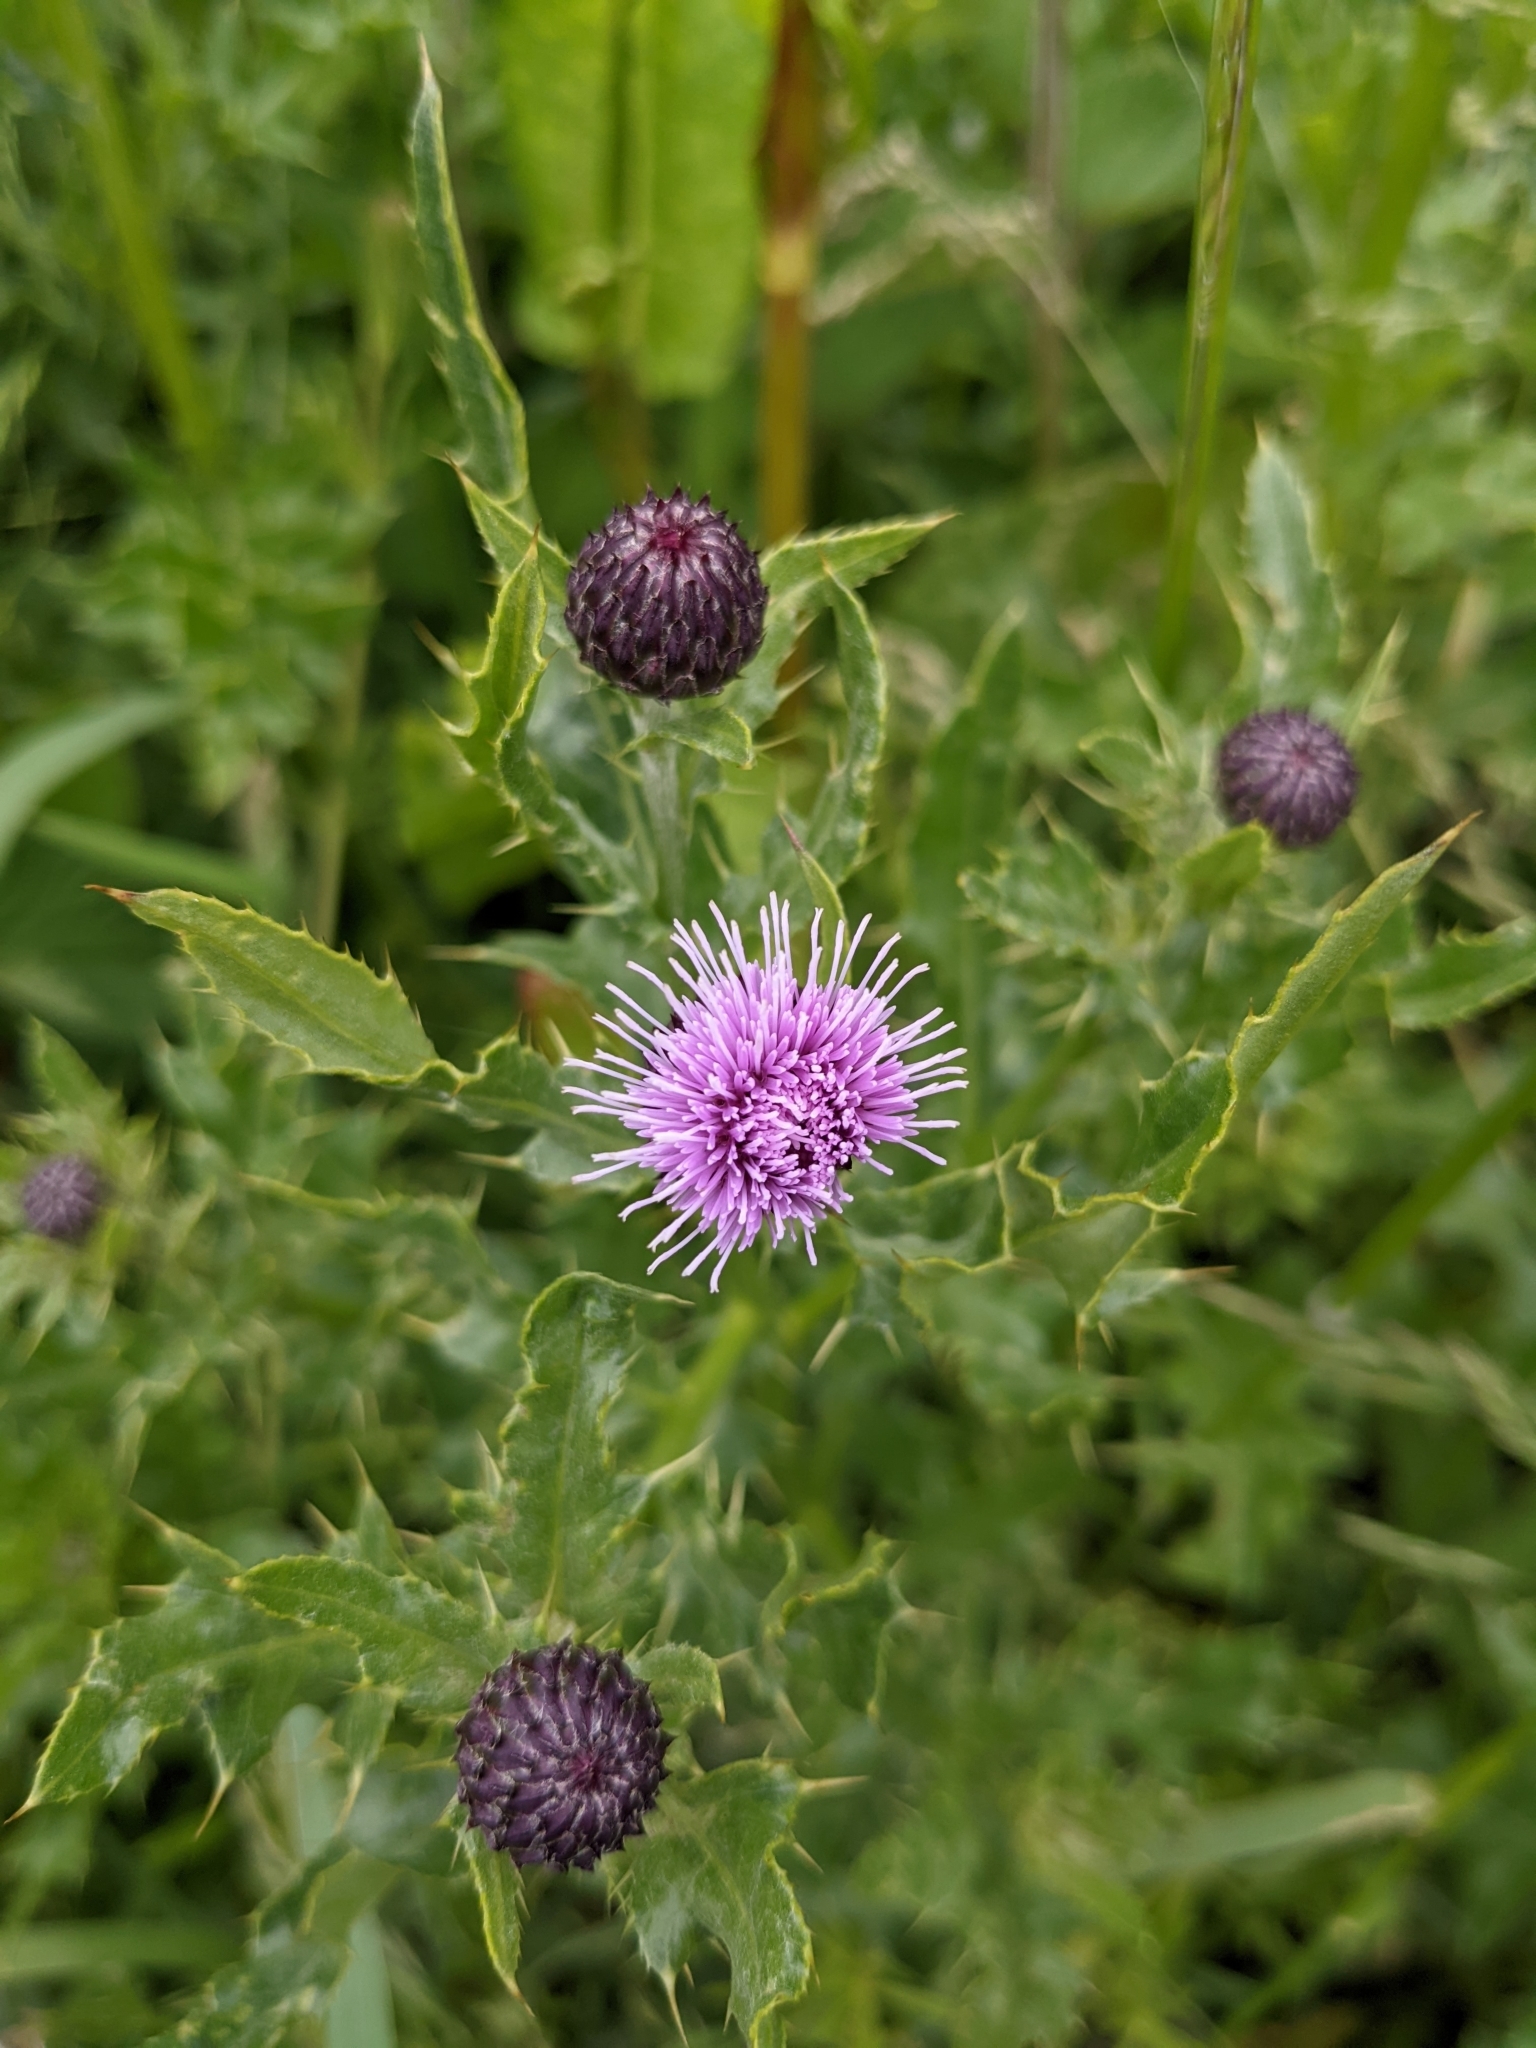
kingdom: Plantae
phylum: Tracheophyta
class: Magnoliopsida
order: Asterales
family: Asteraceae
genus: Cirsium
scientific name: Cirsium arvense
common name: Creeping thistle
